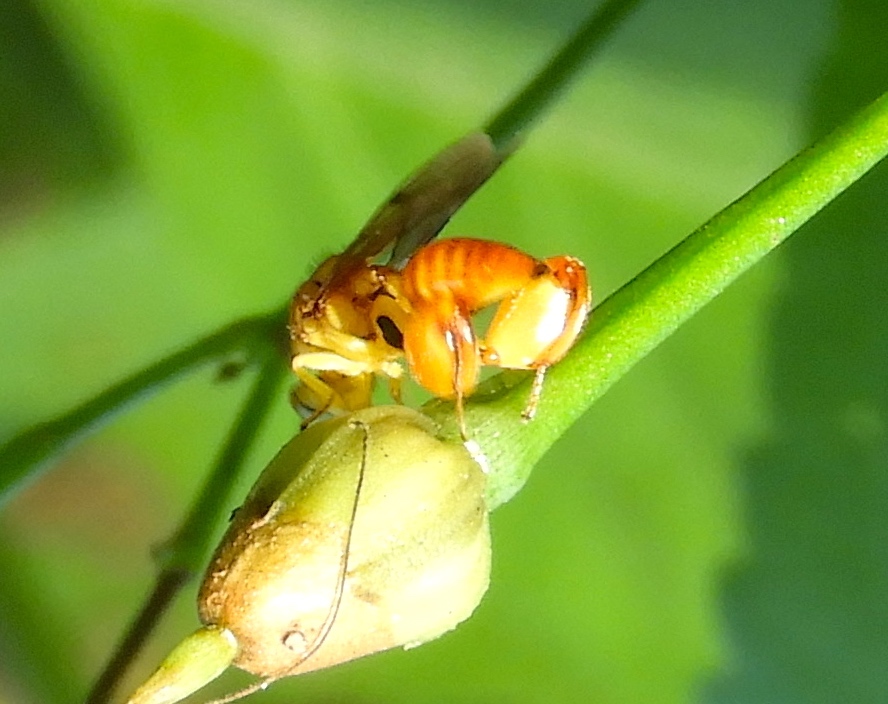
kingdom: Animalia
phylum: Arthropoda
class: Insecta
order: Hymenoptera
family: Chalcididae
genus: Conura
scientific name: Conura
